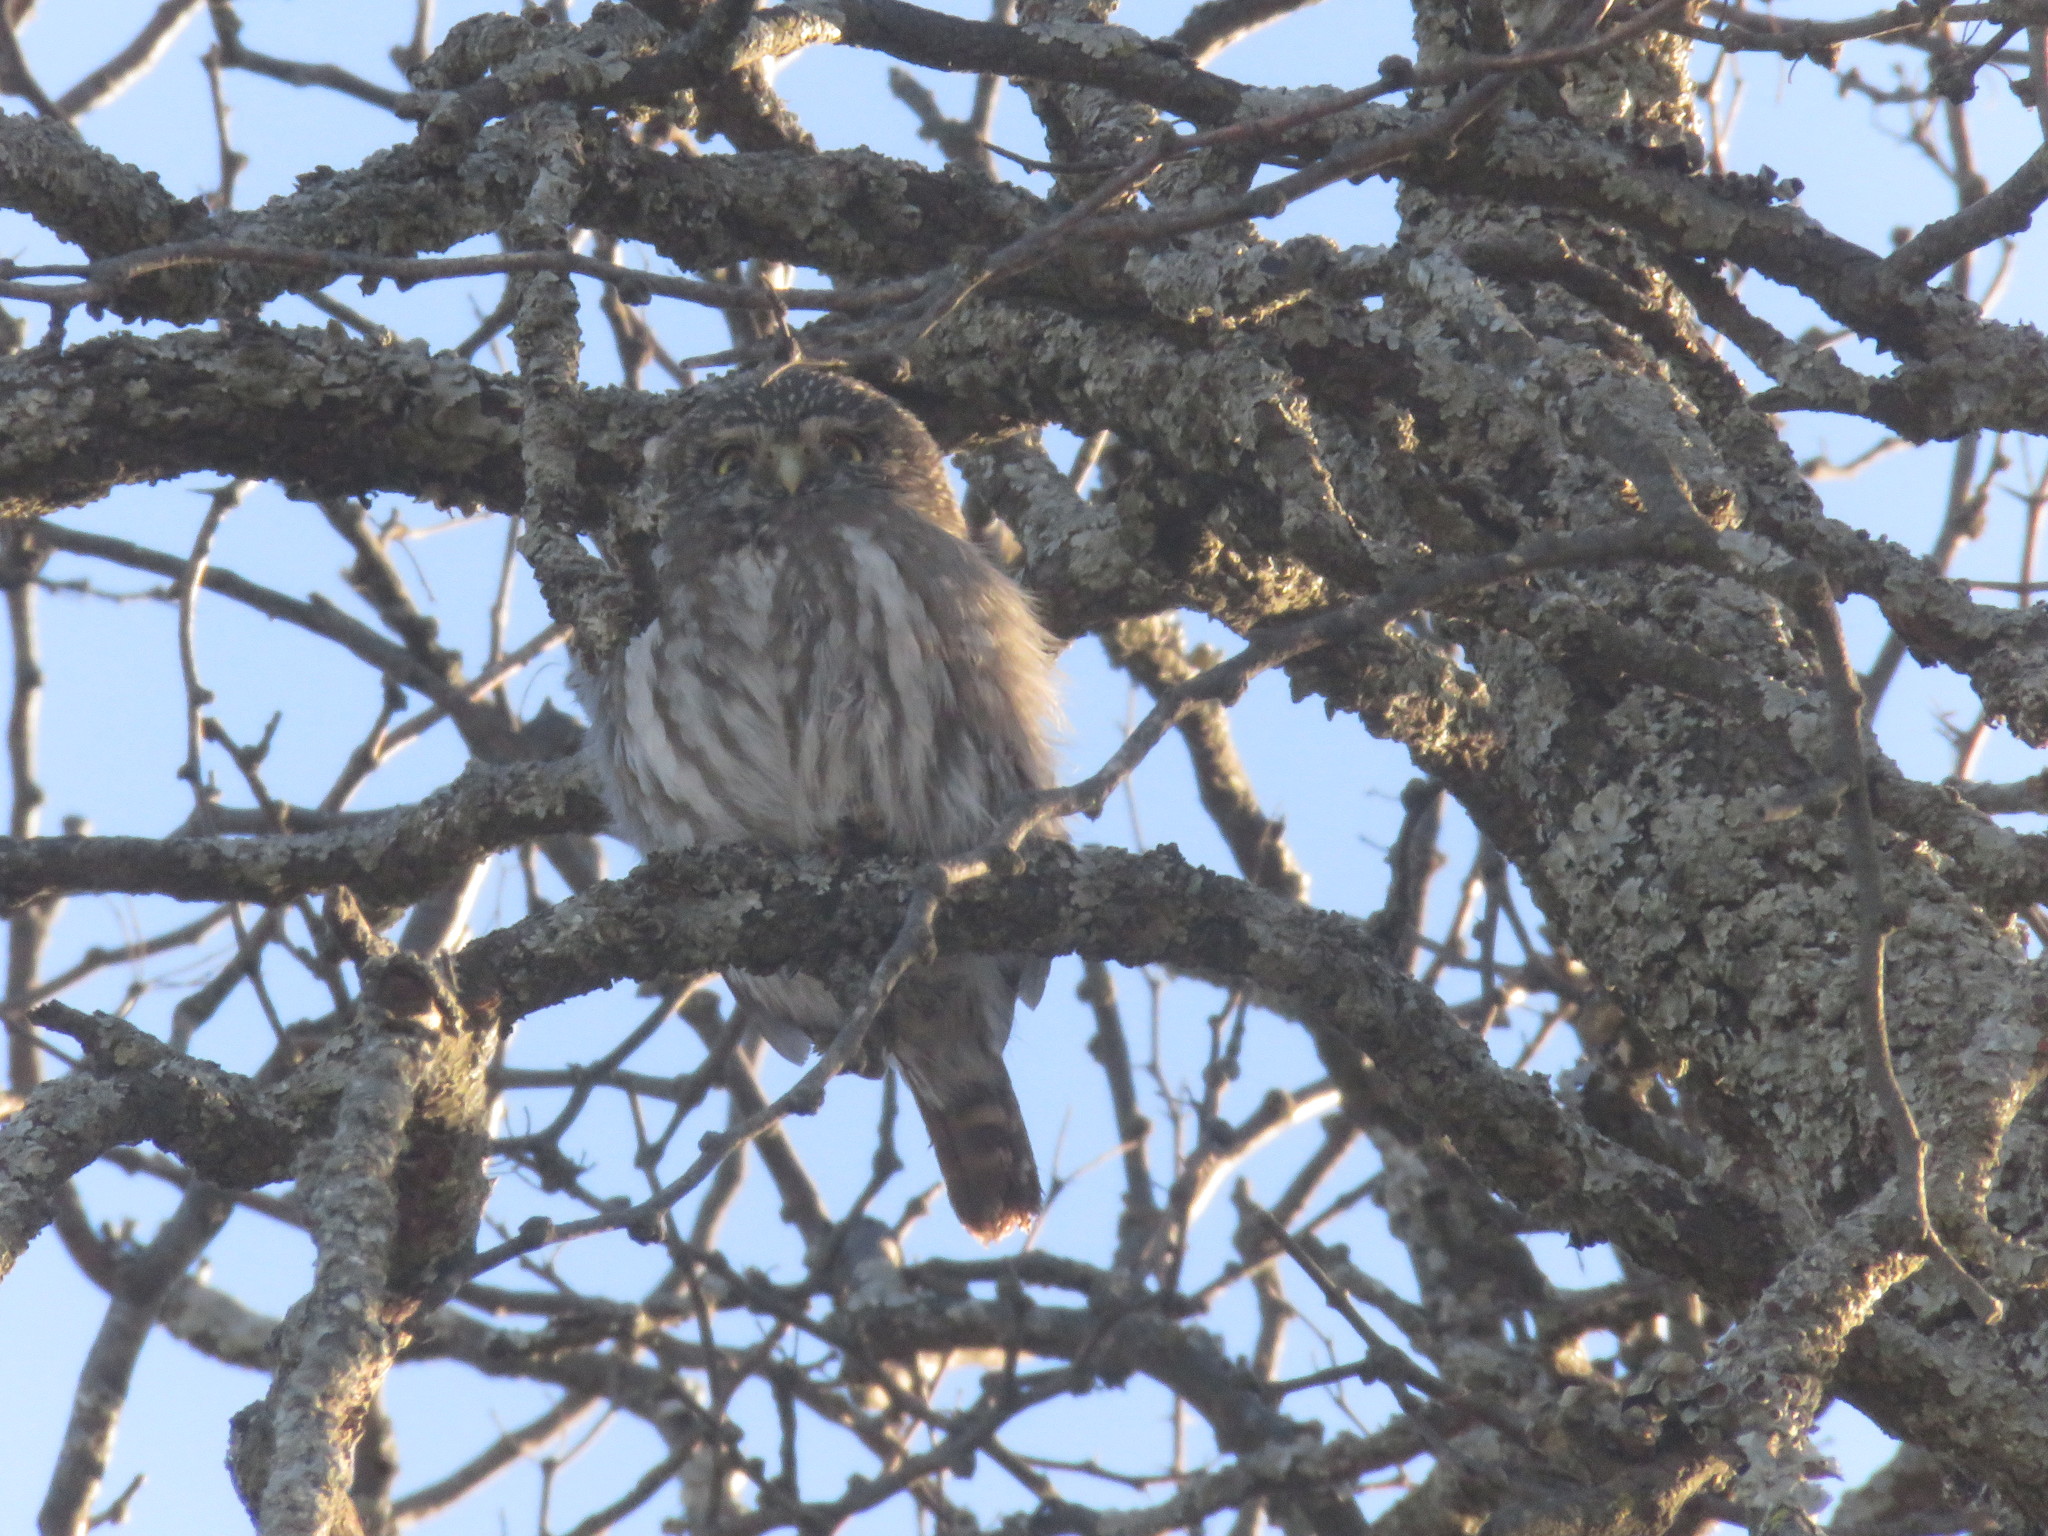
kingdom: Animalia
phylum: Chordata
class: Aves
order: Strigiformes
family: Strigidae
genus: Glaucidium
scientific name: Glaucidium brasilianum
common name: Ferruginous pygmy-owl
